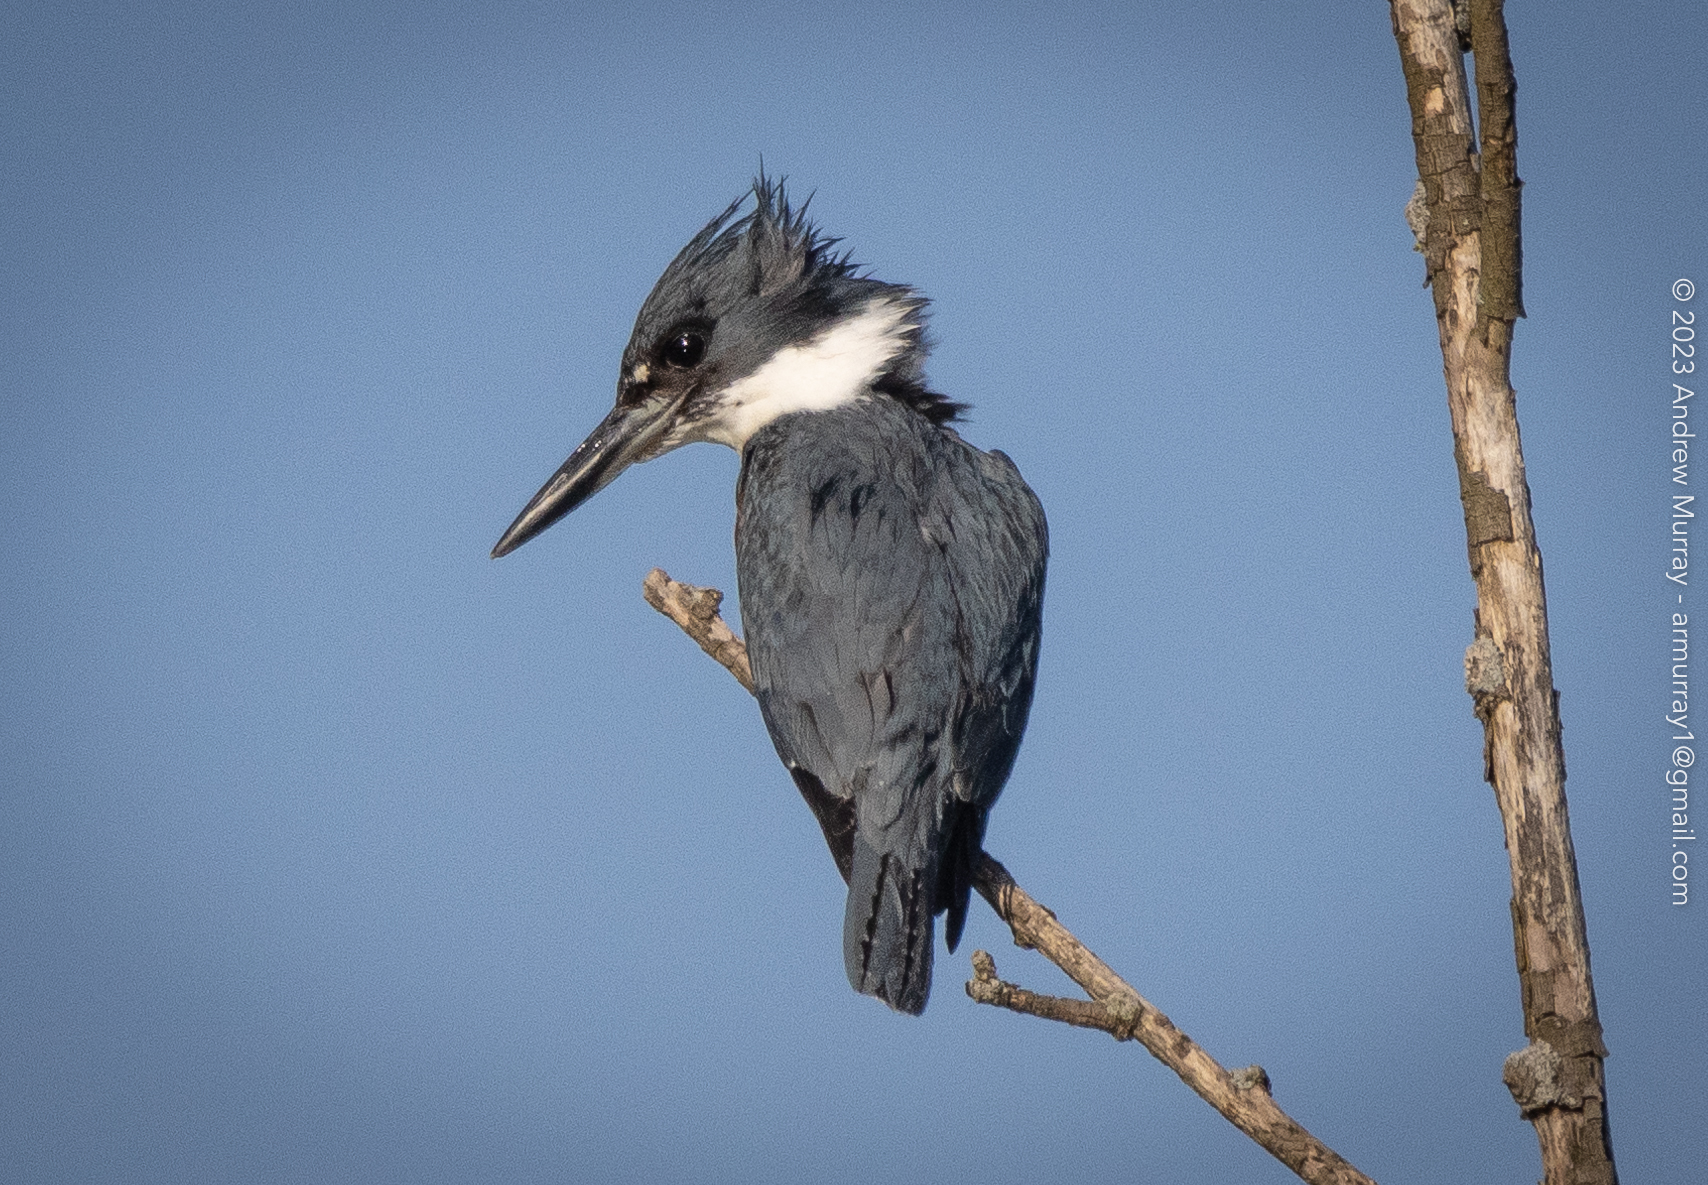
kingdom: Animalia
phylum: Chordata
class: Aves
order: Coraciiformes
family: Alcedinidae
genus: Megaceryle
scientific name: Megaceryle alcyon
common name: Belted kingfisher
